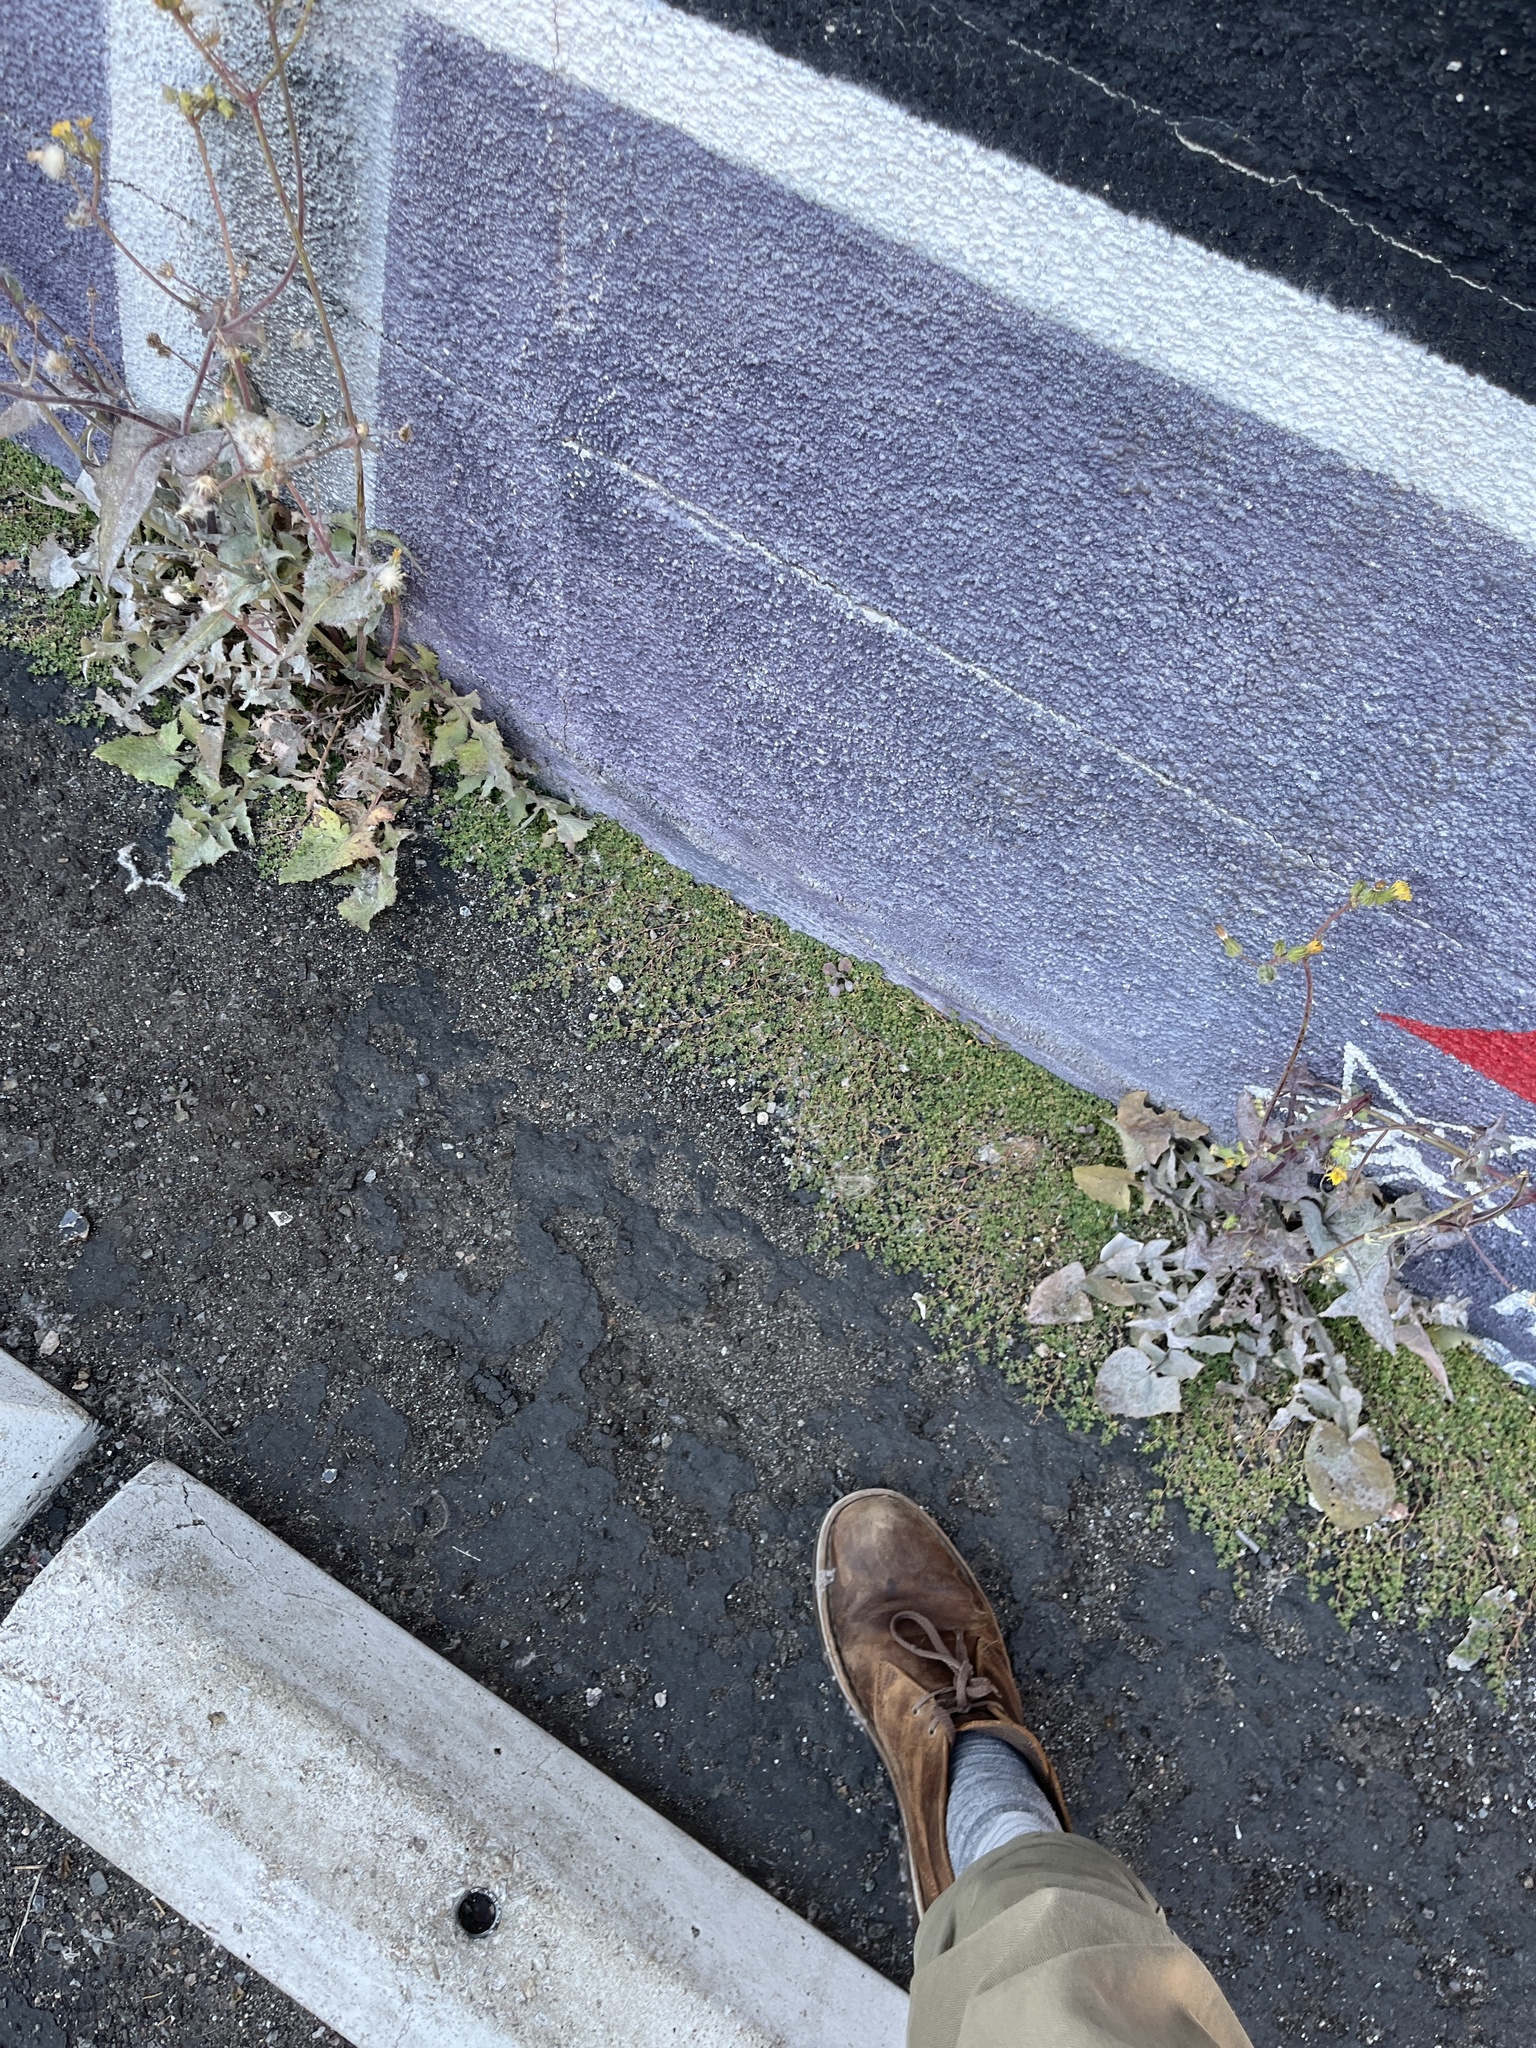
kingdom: Plantae
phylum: Tracheophyta
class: Magnoliopsida
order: Malpighiales
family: Euphorbiaceae
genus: Euphorbia
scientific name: Euphorbia serpens
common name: Matted sandmat
